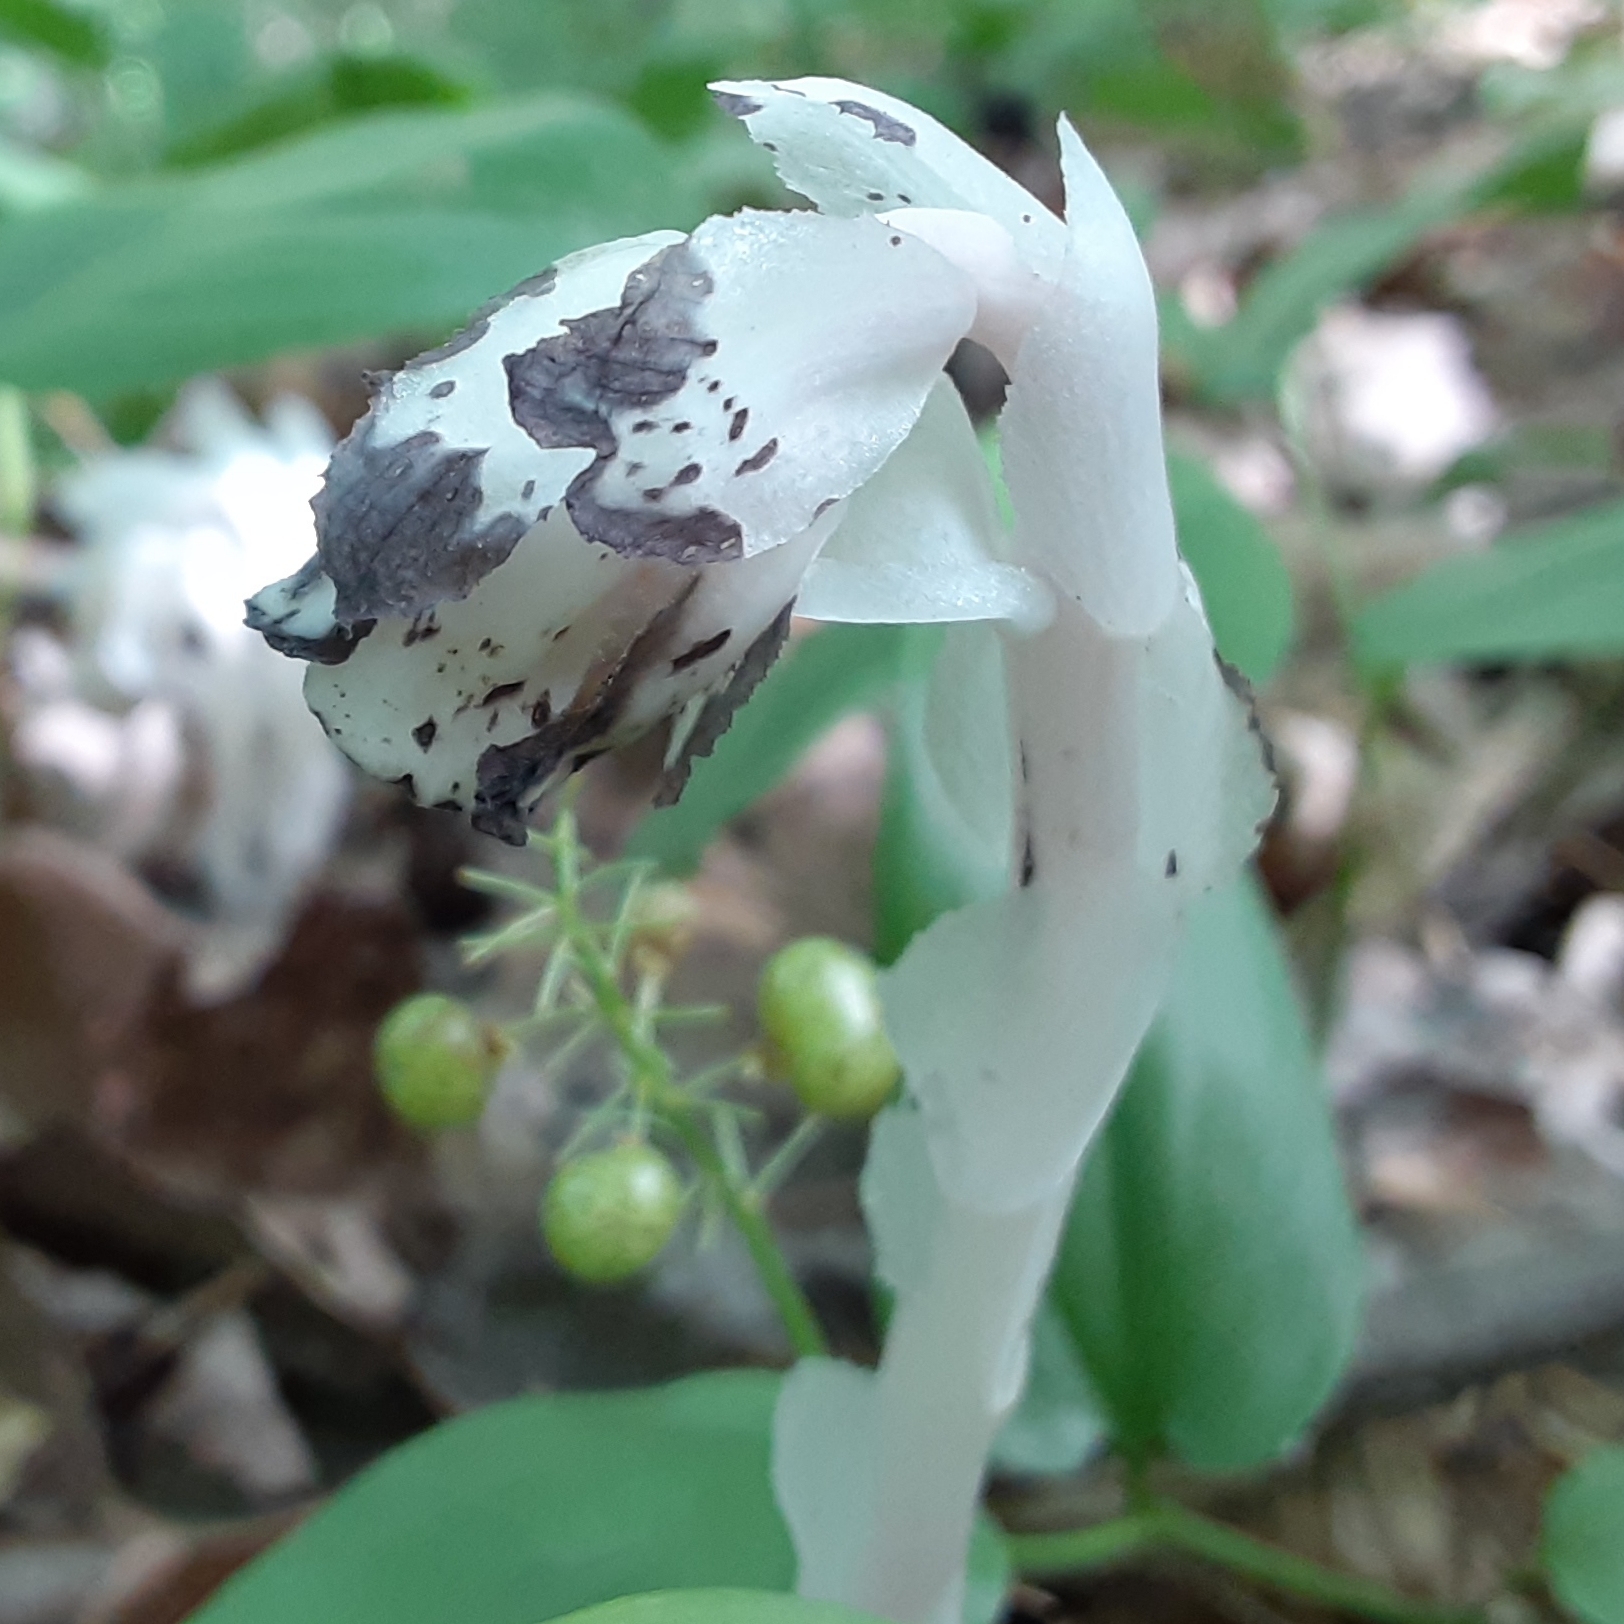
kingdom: Plantae
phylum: Tracheophyta
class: Magnoliopsida
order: Ericales
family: Ericaceae
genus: Monotropa
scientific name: Monotropa uniflora
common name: Convulsion root
